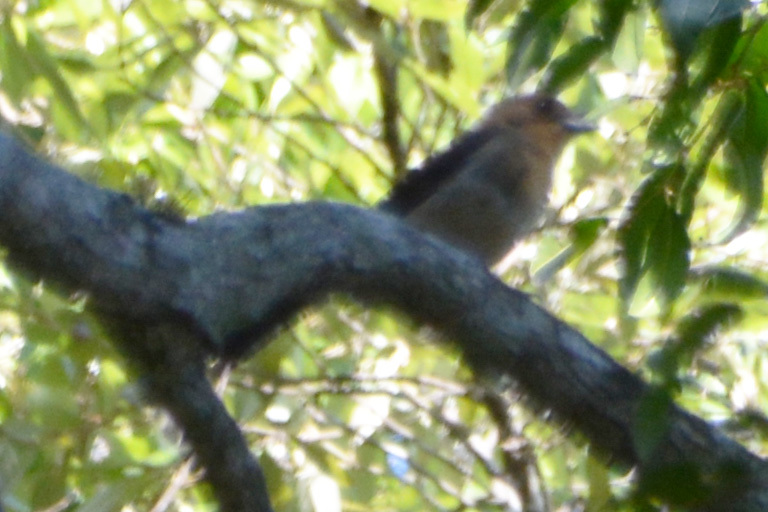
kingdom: Animalia
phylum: Chordata
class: Aves
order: Passeriformes
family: Thraupidae
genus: Trichothraupis
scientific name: Trichothraupis melanops
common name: Black-goggled tanager
